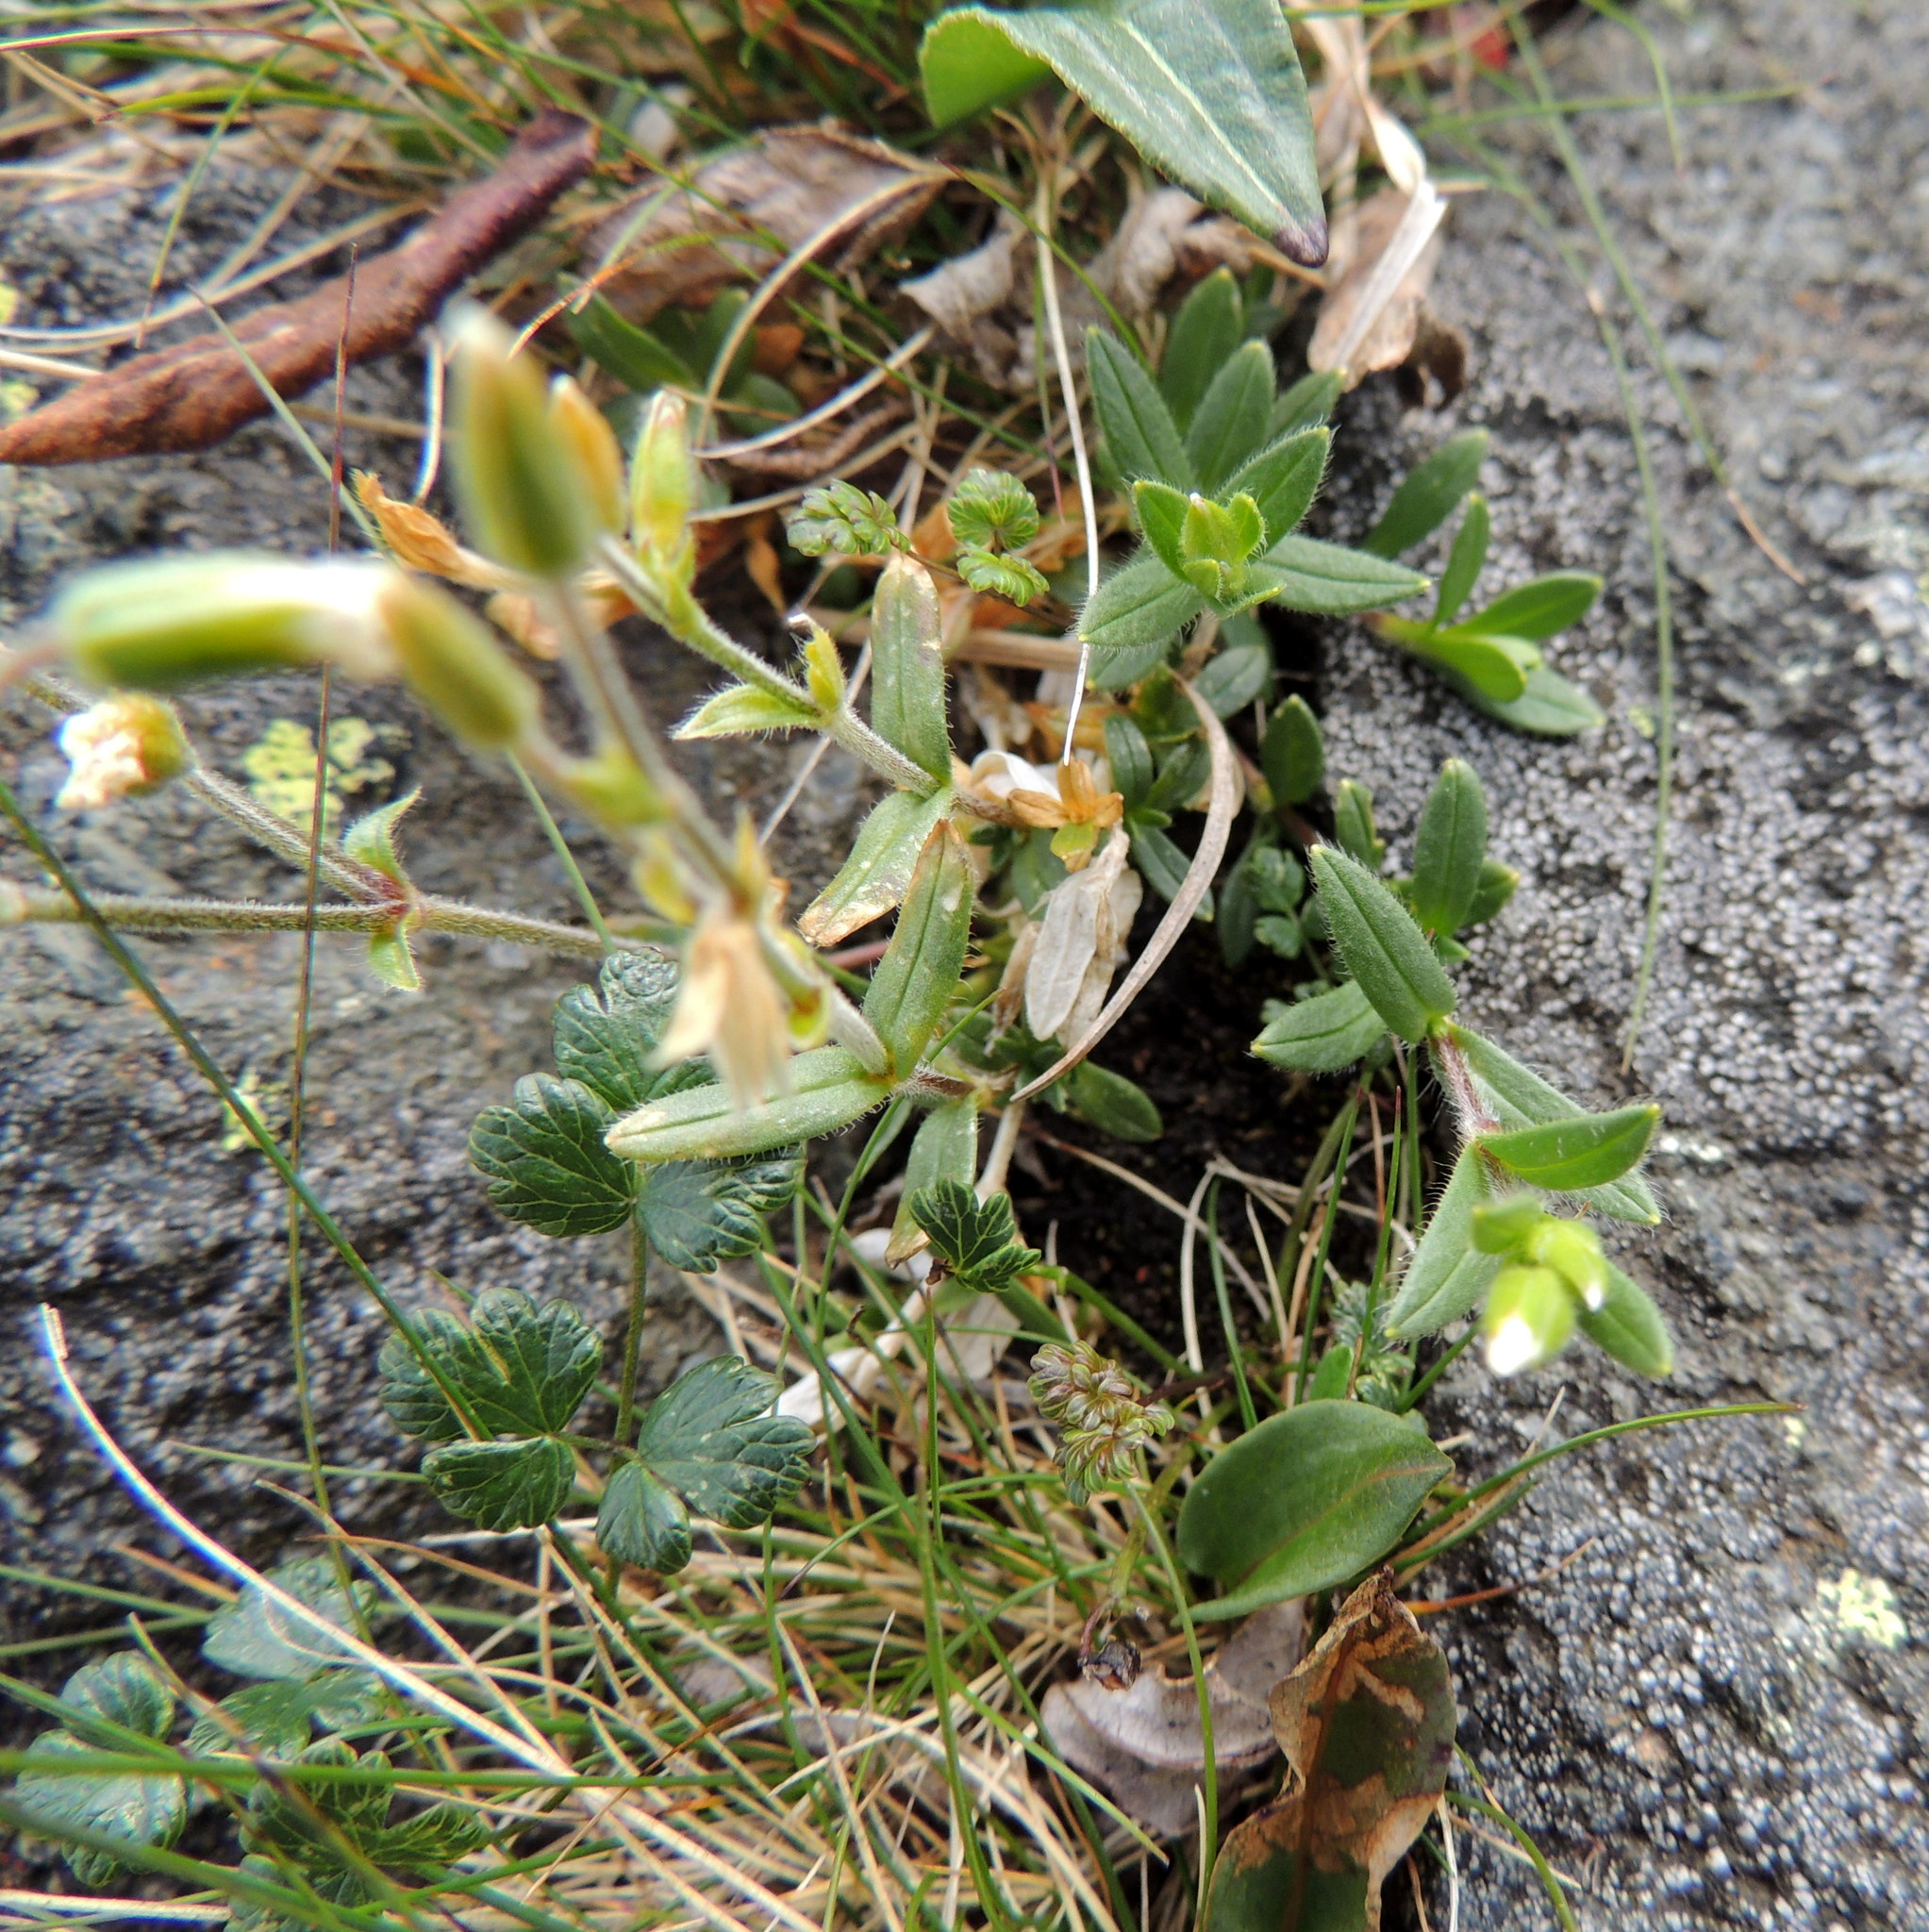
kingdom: Plantae
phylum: Tracheophyta
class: Magnoliopsida
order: Caryophyllales
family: Caryophyllaceae
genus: Cerastium
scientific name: Cerastium krylovii
